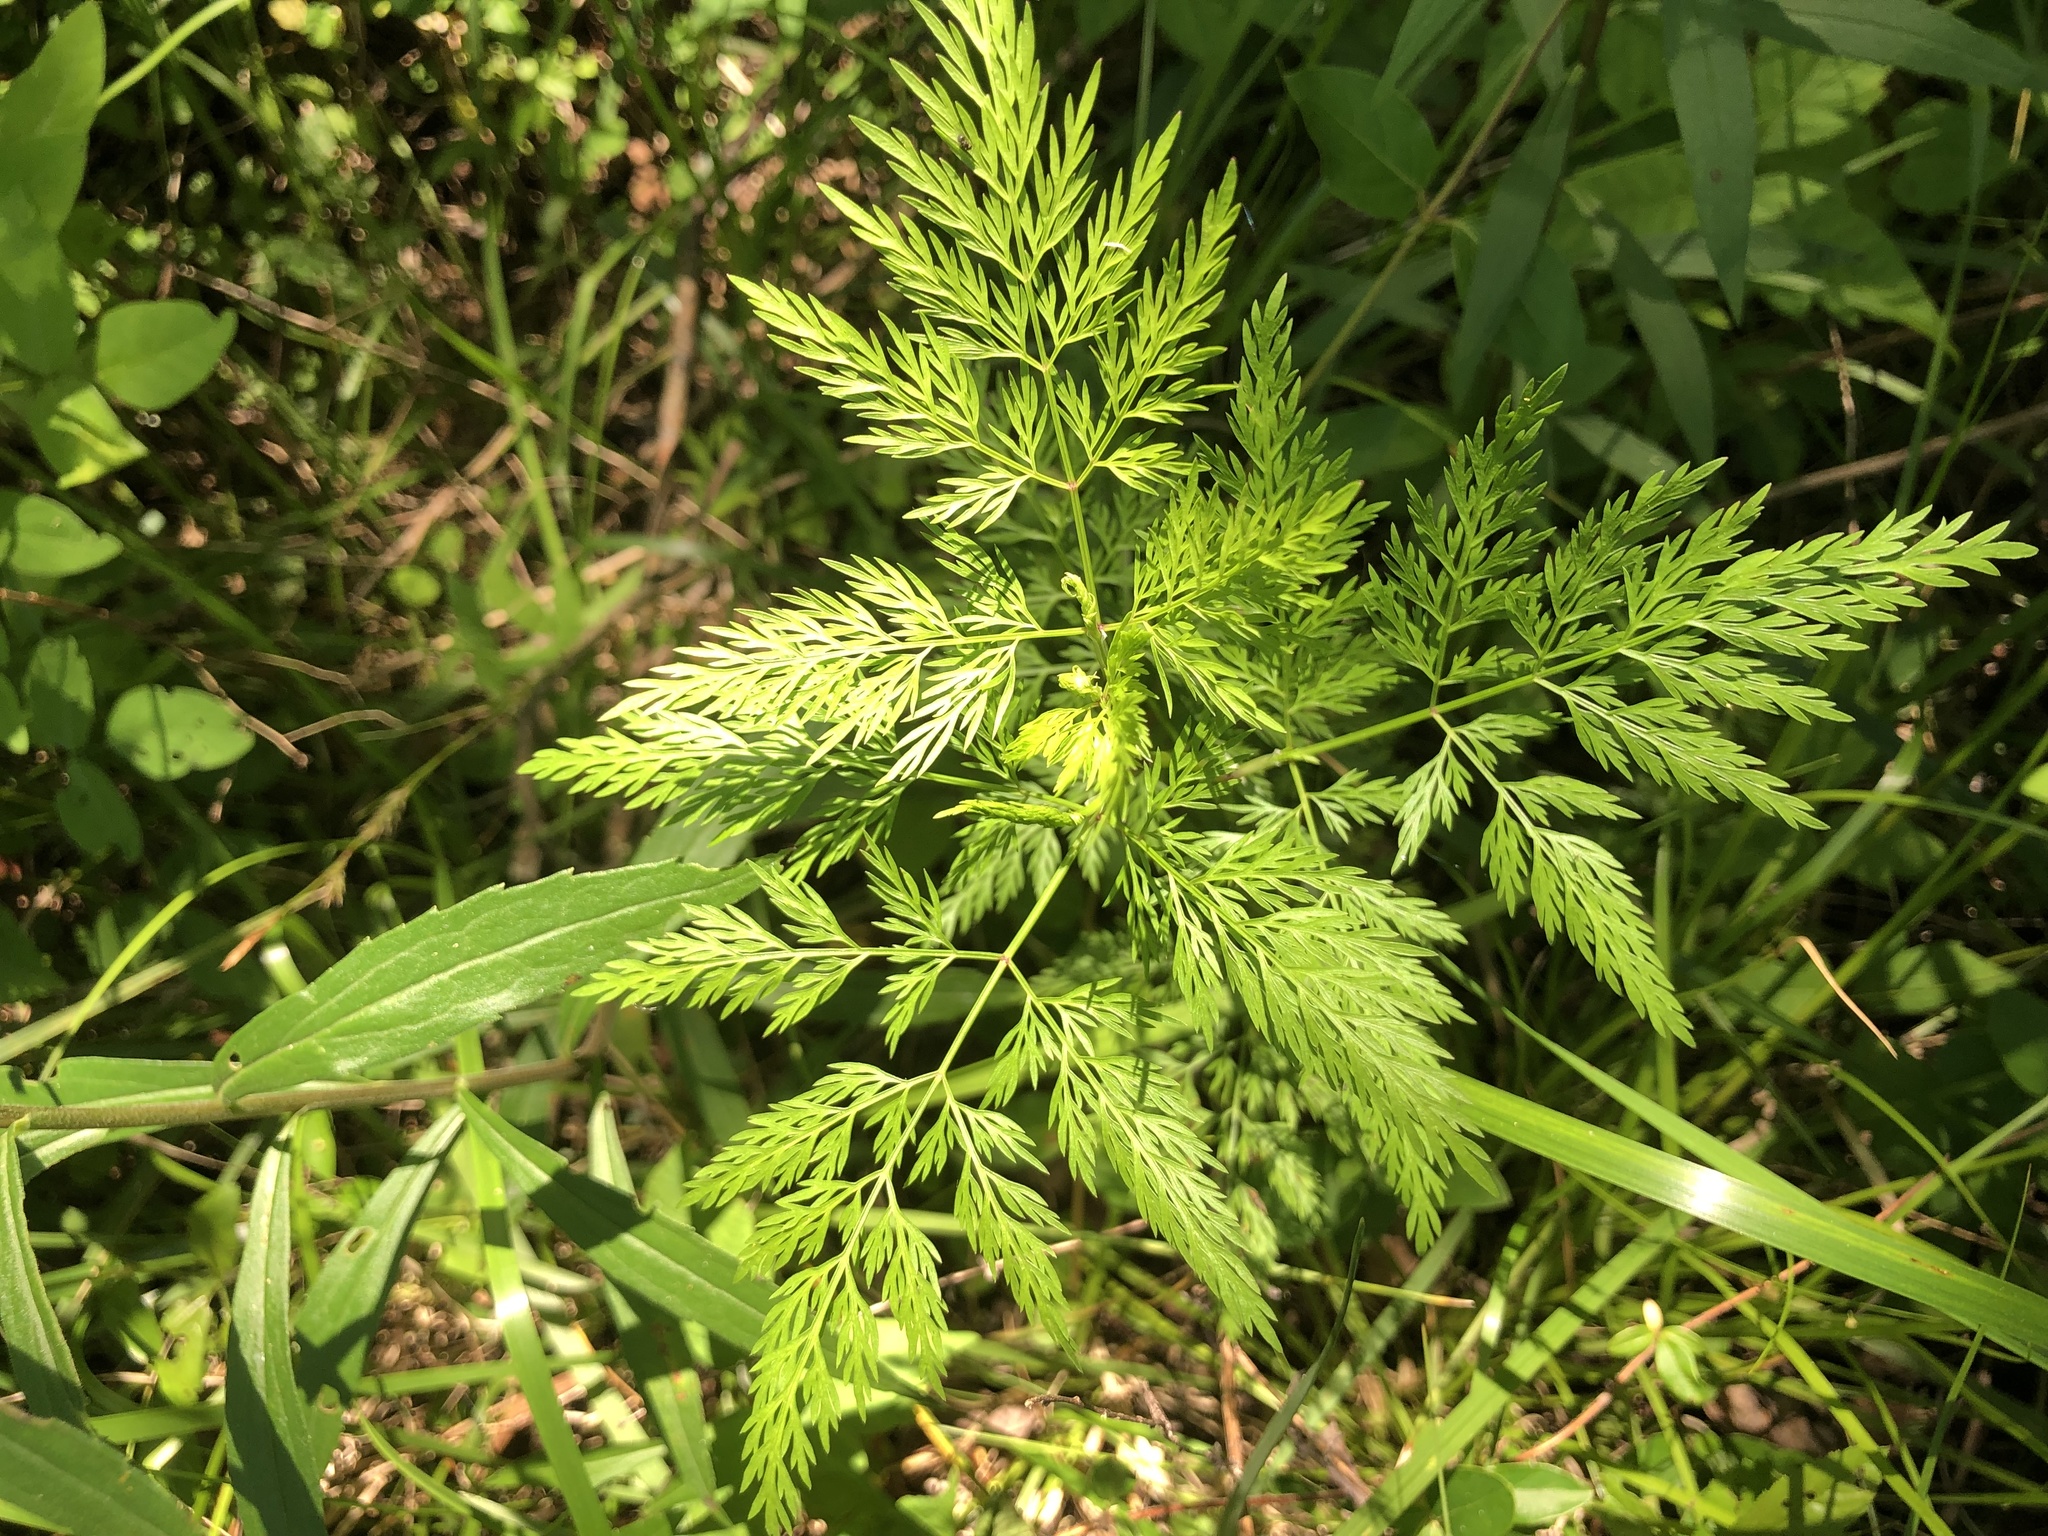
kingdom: Plantae
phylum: Tracheophyta
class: Magnoliopsida
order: Apiales
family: Apiaceae
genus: Trepocarpus
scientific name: Trepocarpus aethusae
